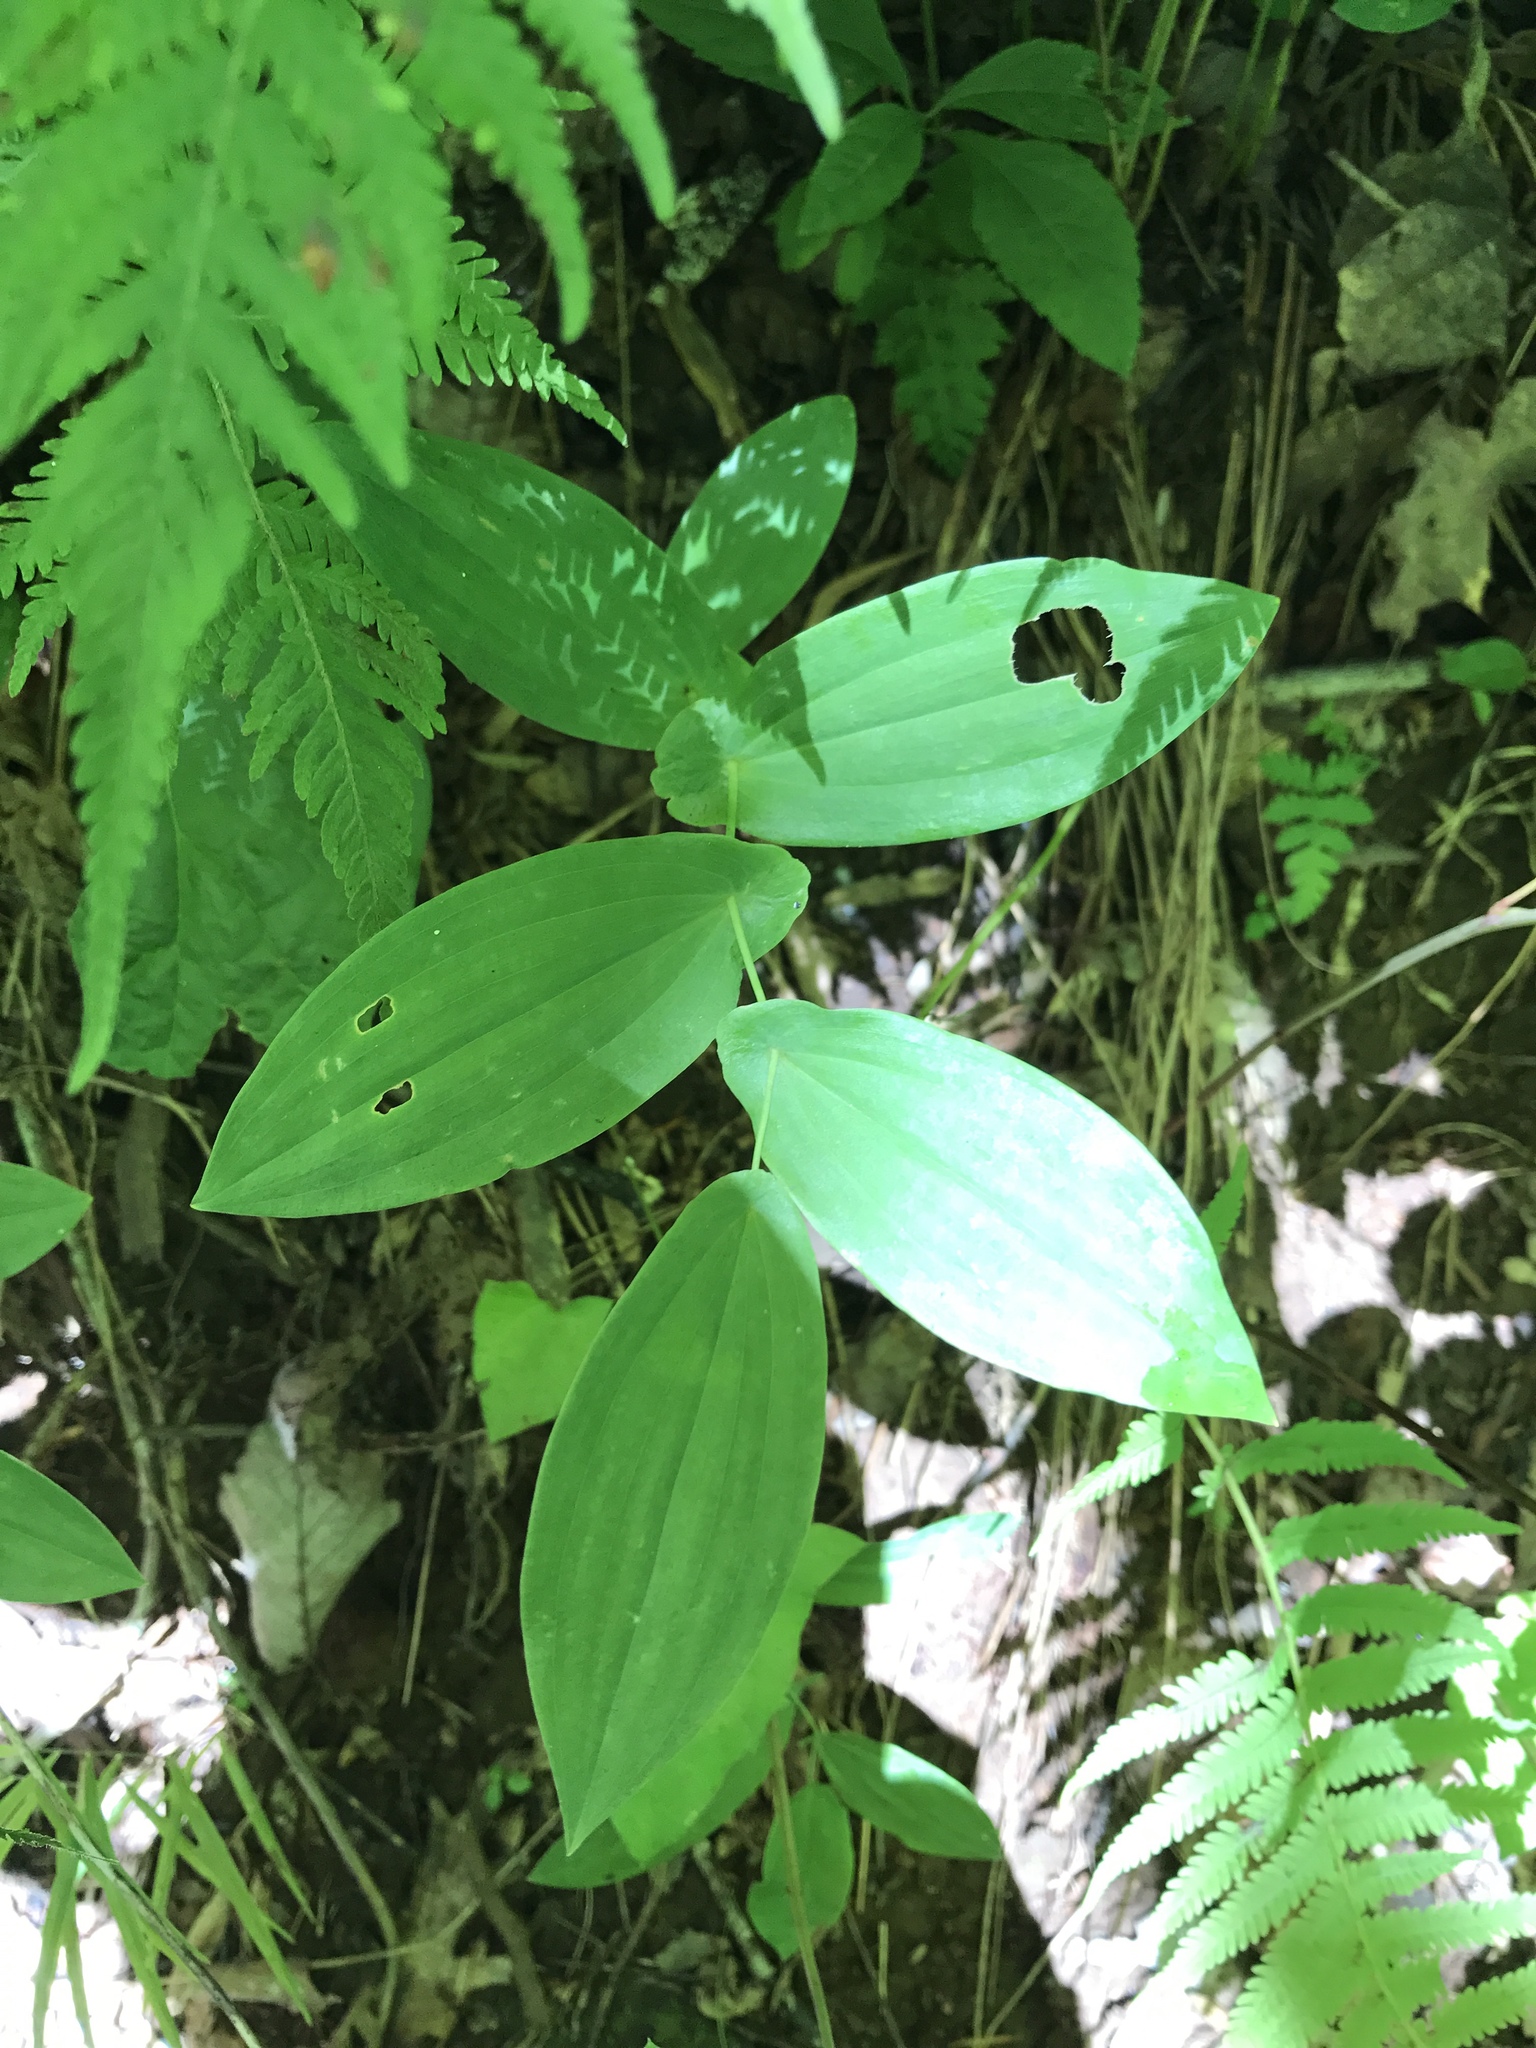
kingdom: Plantae
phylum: Tracheophyta
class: Liliopsida
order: Liliales
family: Colchicaceae
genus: Uvularia
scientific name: Uvularia grandiflora
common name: Bellwort
